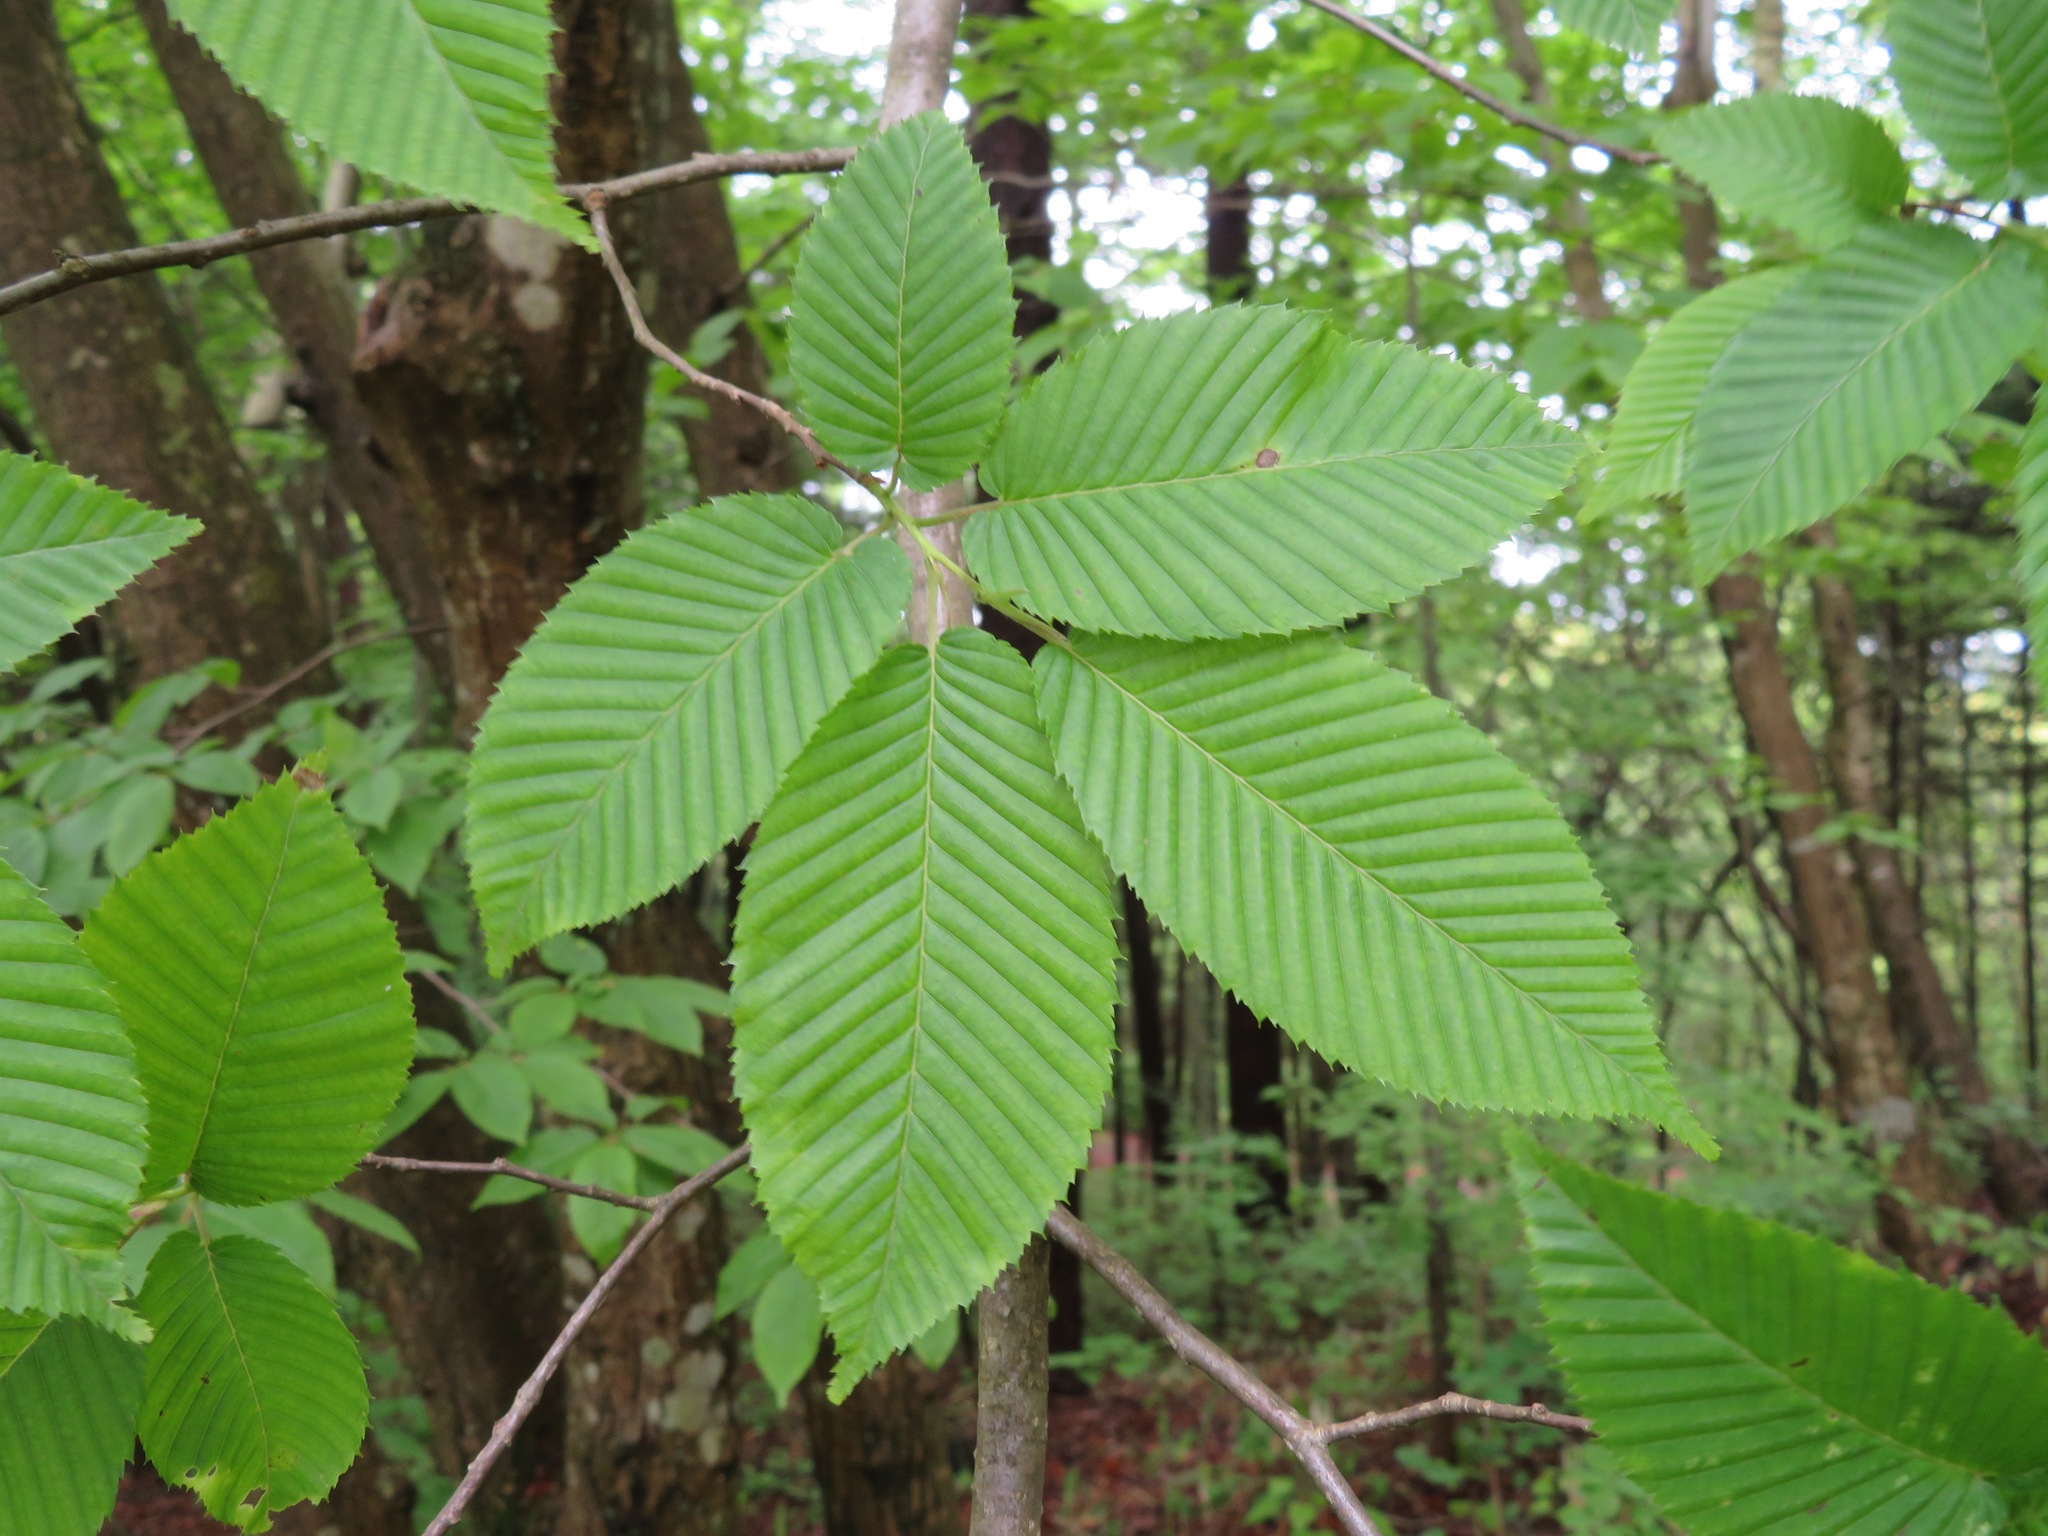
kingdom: Plantae
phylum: Tracheophyta
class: Magnoliopsida
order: Fagales
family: Betulaceae
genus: Carpinus
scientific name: Carpinus cordata
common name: Sawa hornbeam
